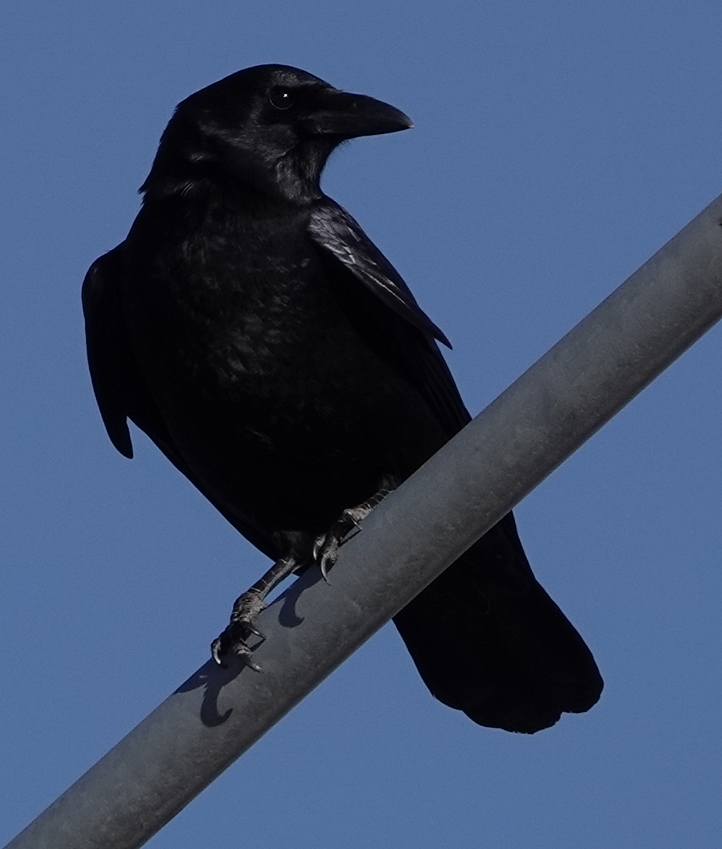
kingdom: Animalia
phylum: Chordata
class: Aves
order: Passeriformes
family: Corvidae
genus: Corvus
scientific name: Corvus brachyrhynchos
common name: American crow
